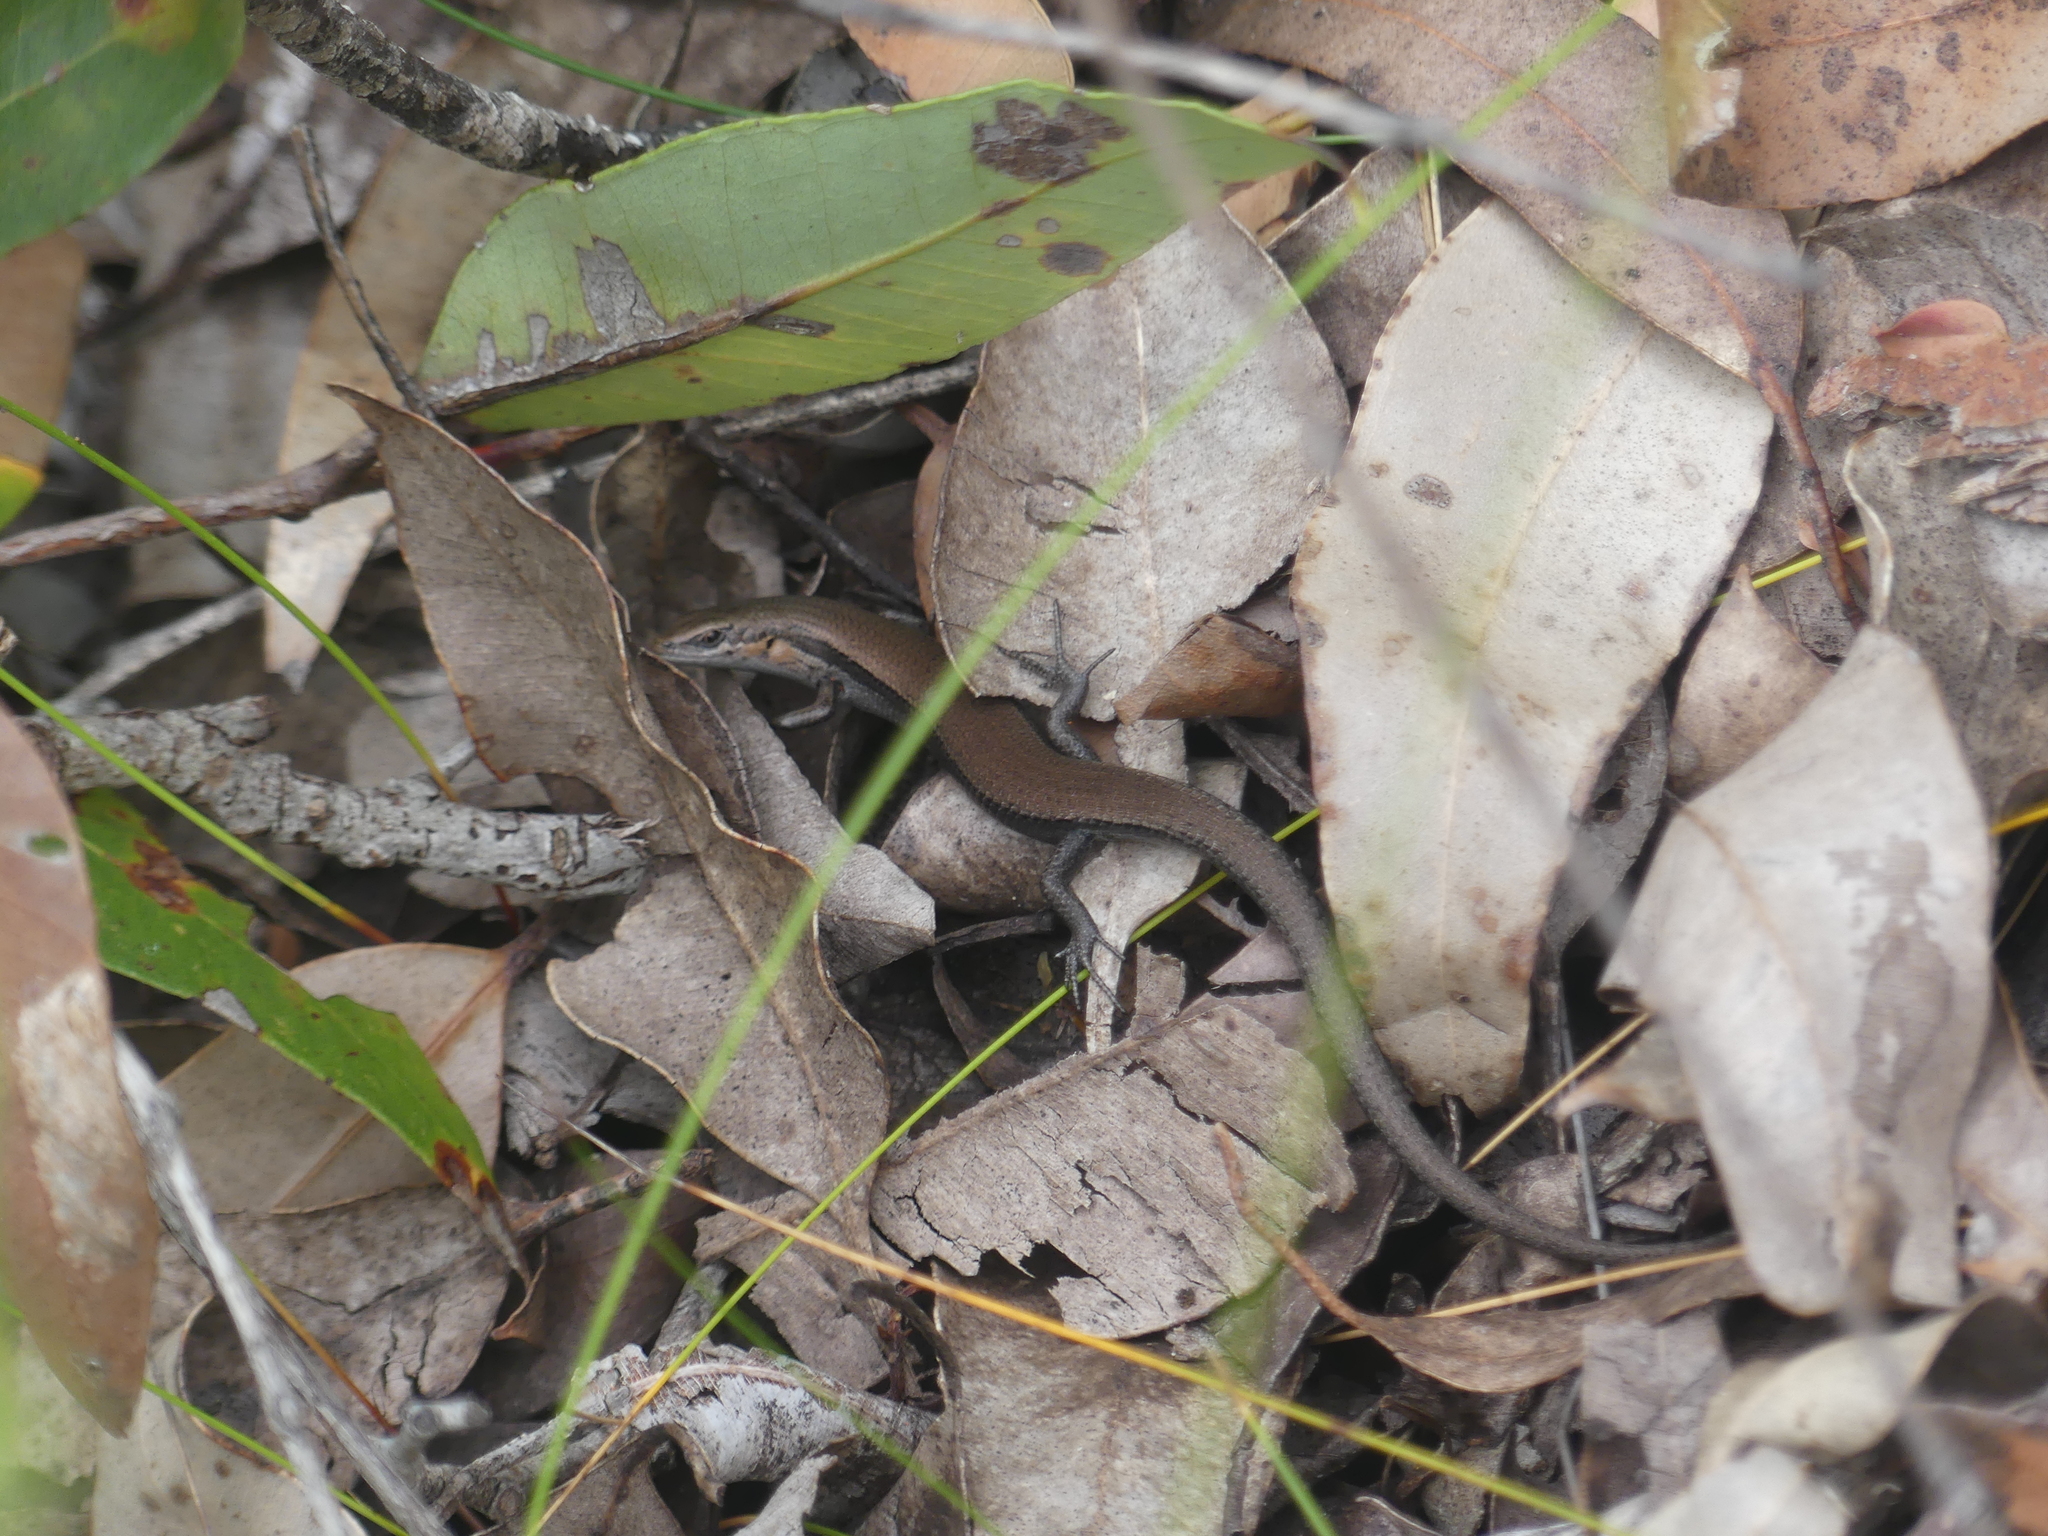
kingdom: Animalia
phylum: Chordata
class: Squamata
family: Scincidae
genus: Acritoscincus
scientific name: Acritoscincus trilineatus
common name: New holland skink
